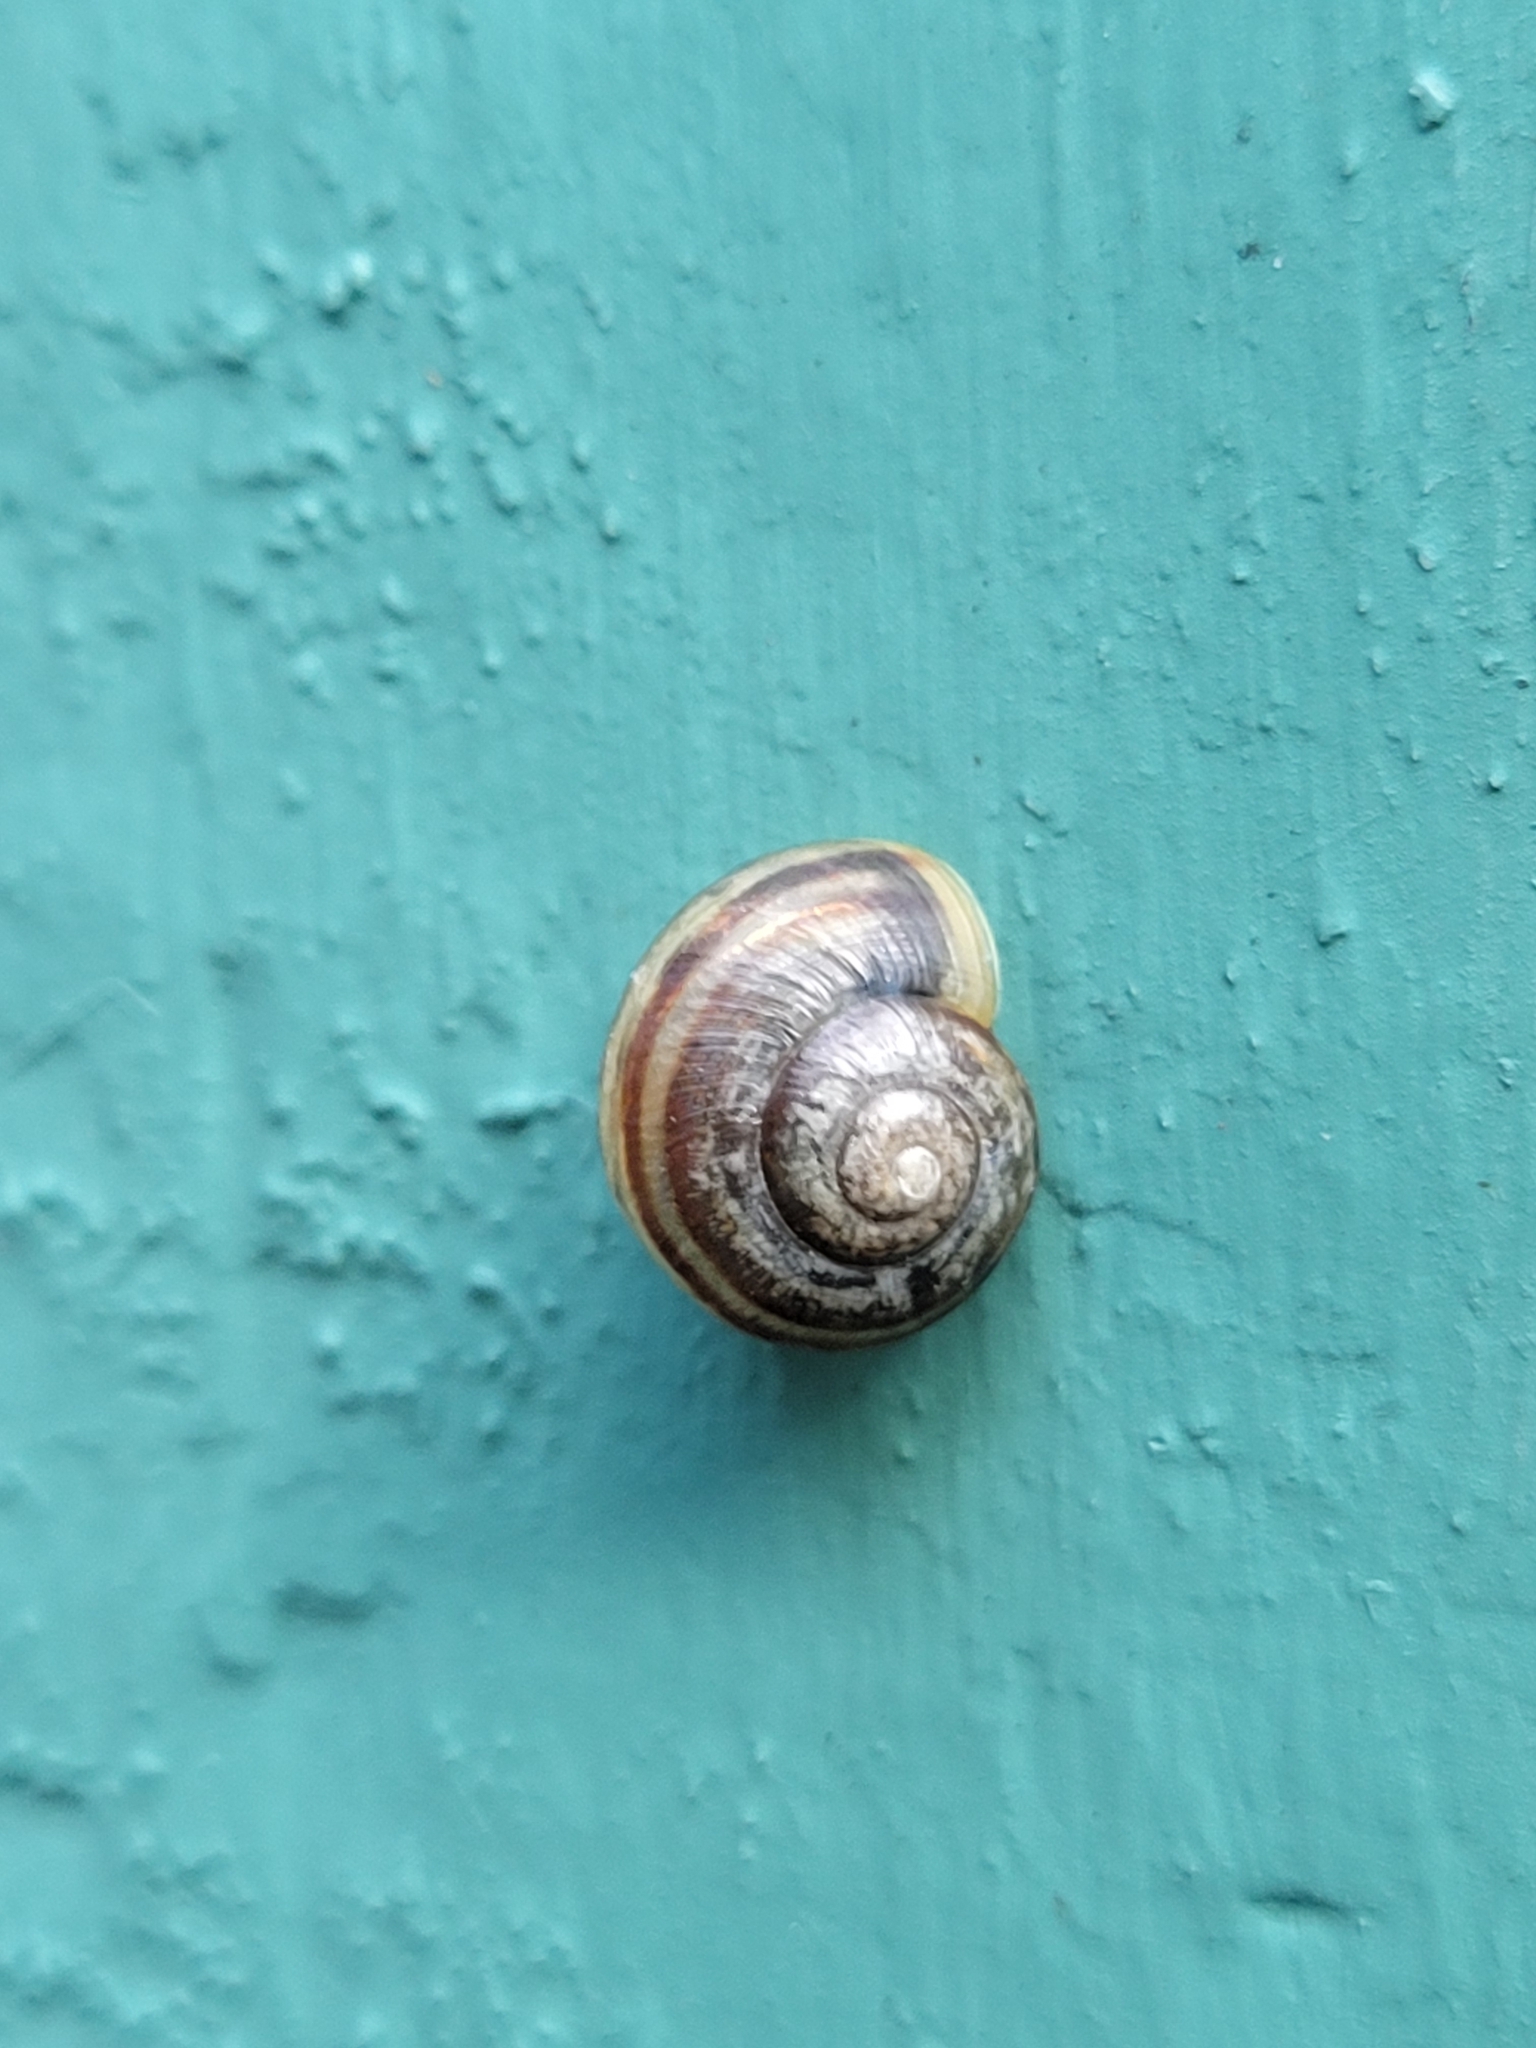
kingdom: Animalia
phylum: Mollusca
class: Gastropoda
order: Stylommatophora
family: Helicidae
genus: Cepaea
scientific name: Cepaea
